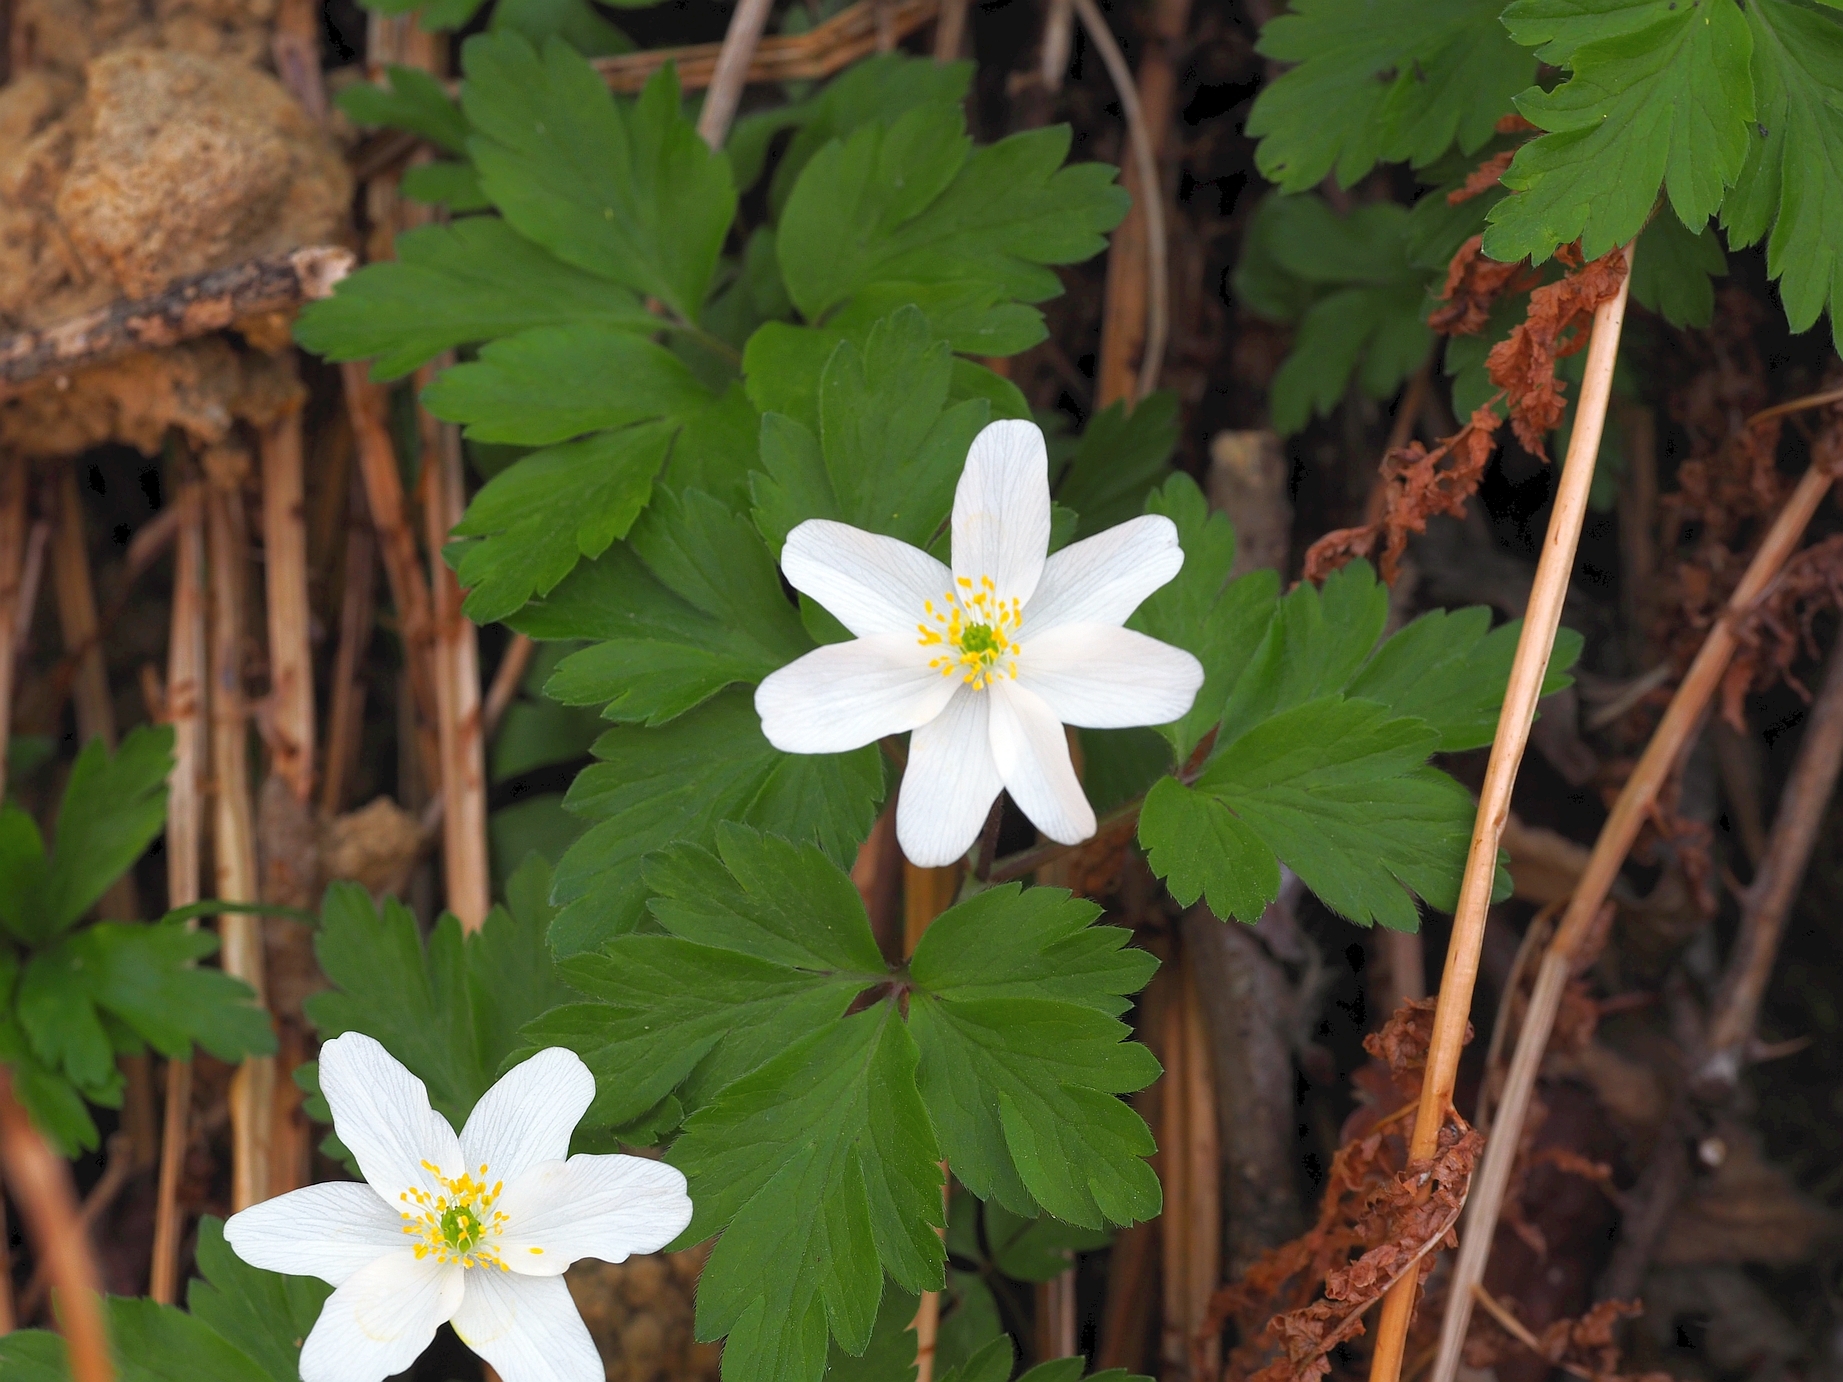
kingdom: Plantae
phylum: Tracheophyta
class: Magnoliopsida
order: Ranunculales
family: Ranunculaceae
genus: Anemone
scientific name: Anemone nemorosa
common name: Wood anemone
